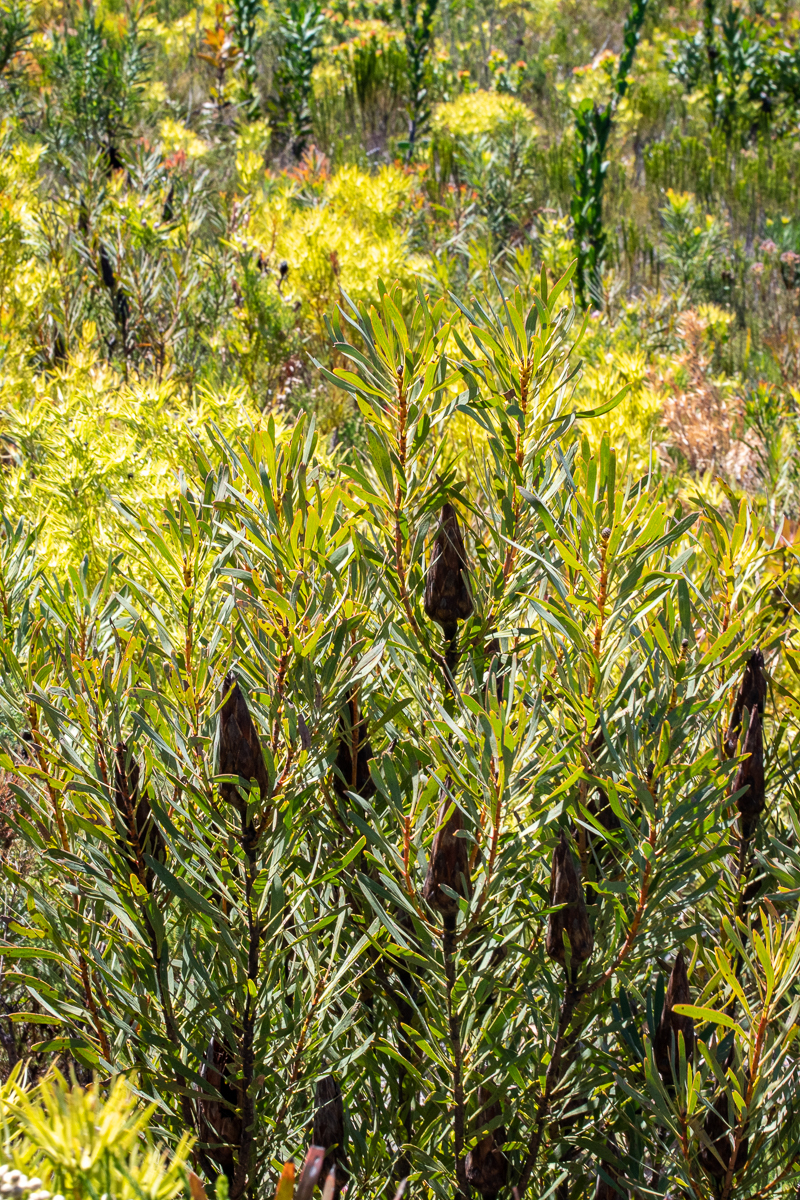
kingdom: Plantae
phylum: Tracheophyta
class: Magnoliopsida
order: Proteales
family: Proteaceae
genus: Protea
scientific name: Protea repens
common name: Sugarbush
